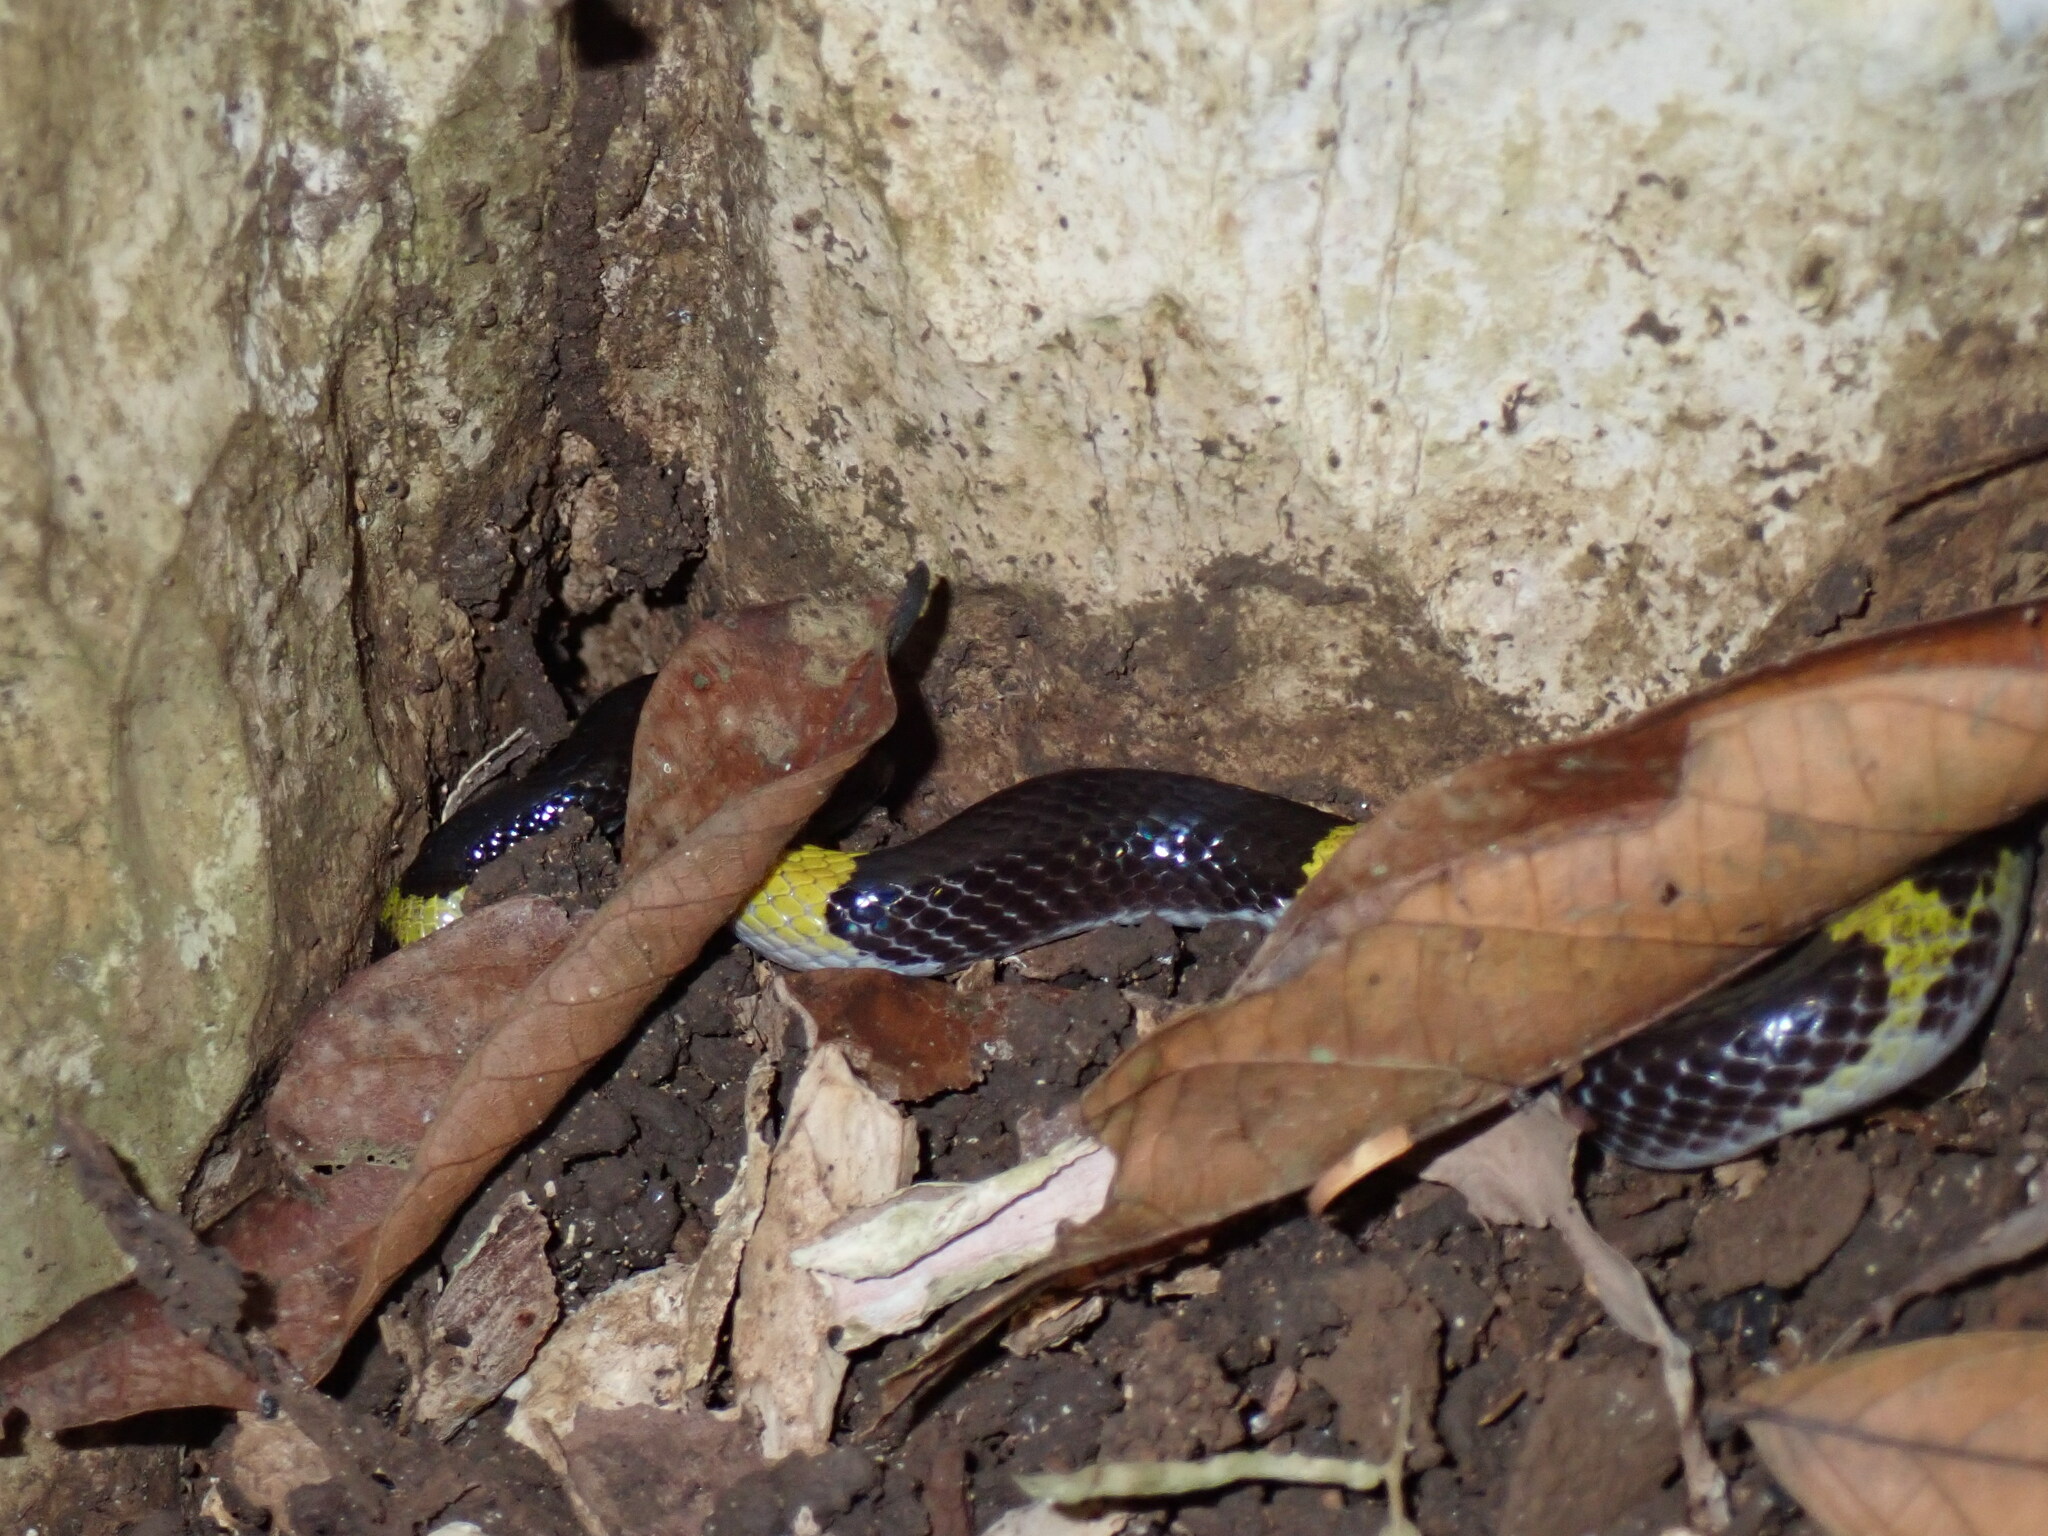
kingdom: Animalia
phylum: Chordata
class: Squamata
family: Colubridae
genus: Lycodon
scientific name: Lycodon laoensis
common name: Laotian wolf snake
